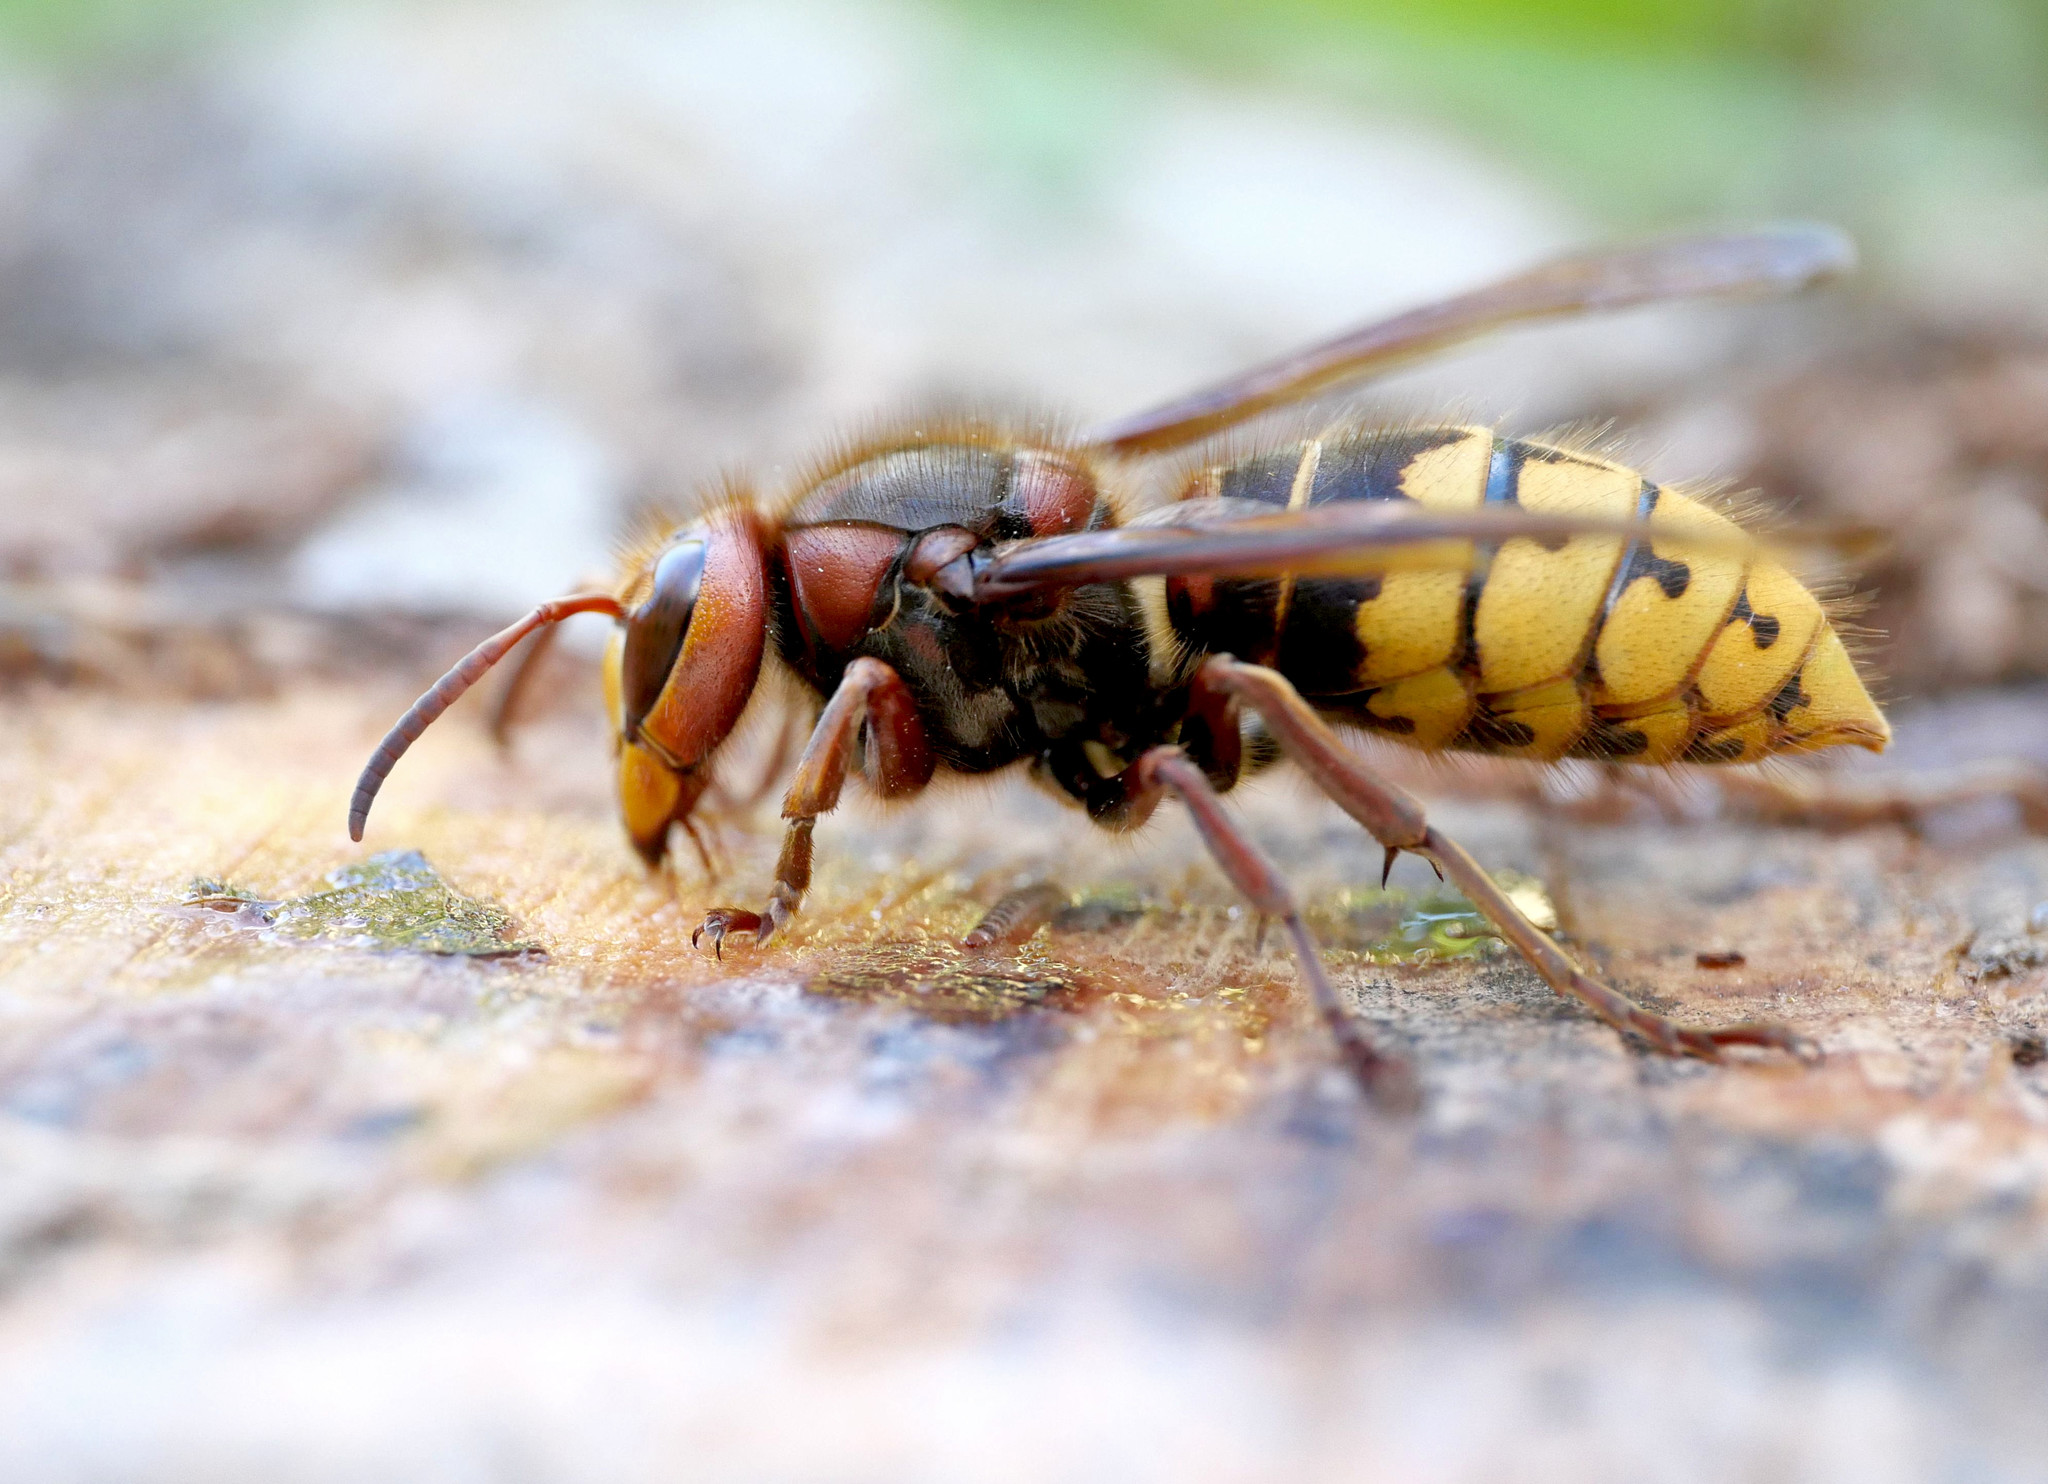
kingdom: Animalia
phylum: Arthropoda
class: Insecta
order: Hymenoptera
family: Vespidae
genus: Vespa
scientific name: Vespa crabro
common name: Hornet
